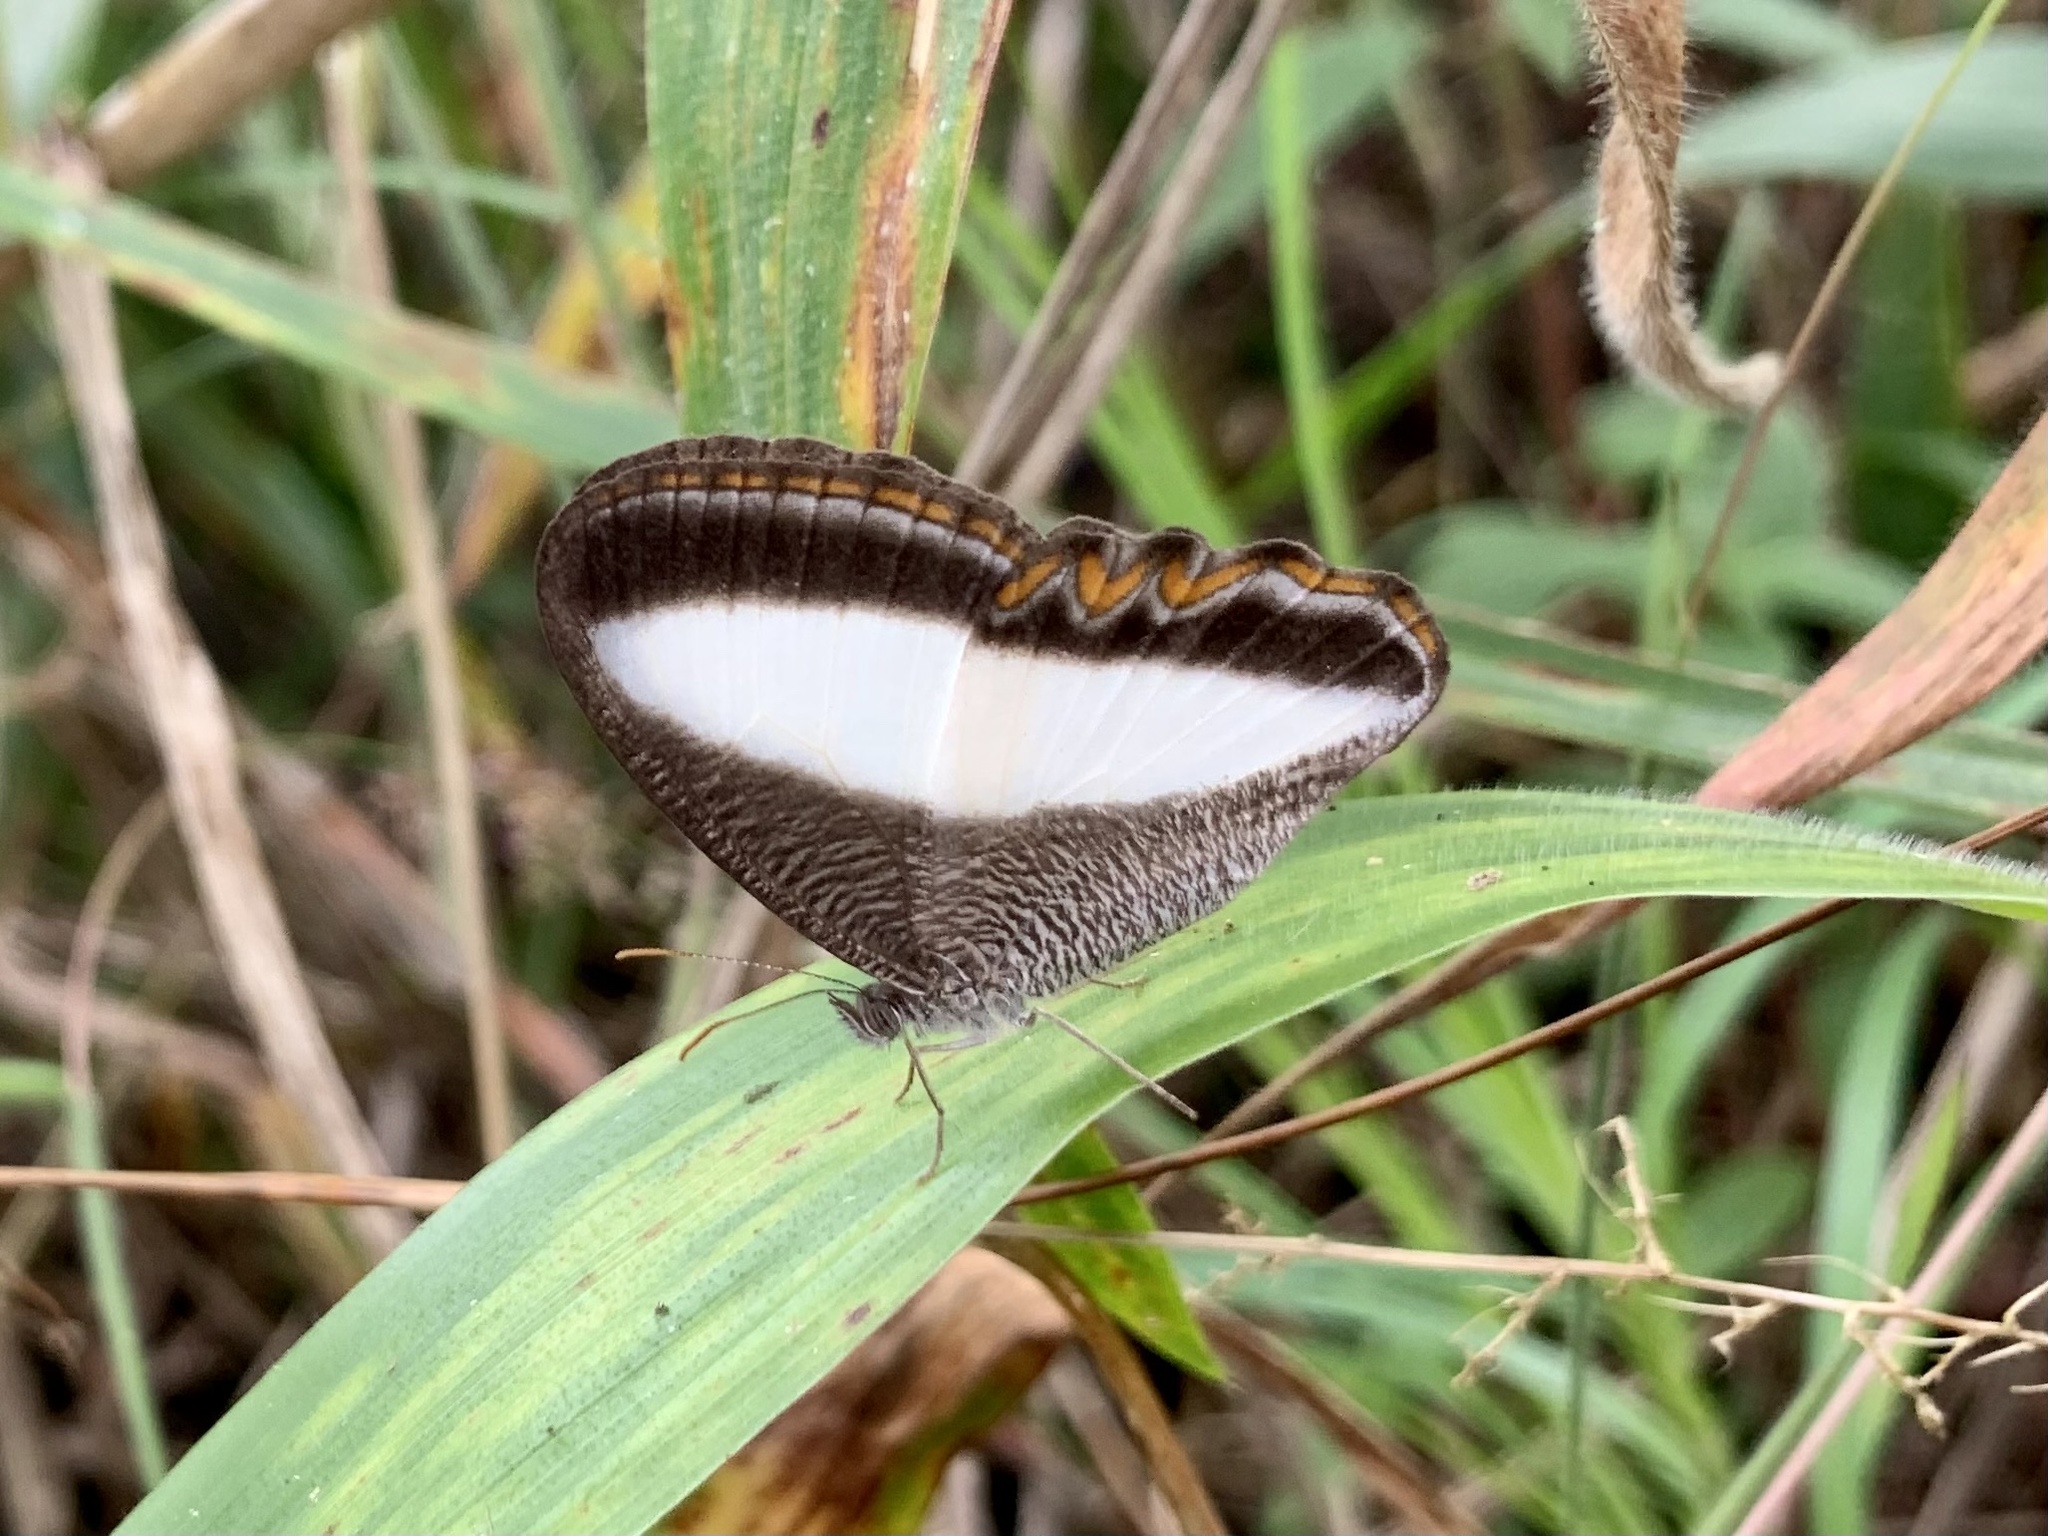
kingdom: Animalia
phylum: Arthropoda
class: Insecta
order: Lepidoptera
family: Nymphalidae
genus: Oressinoma
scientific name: Oressinoma typhla
